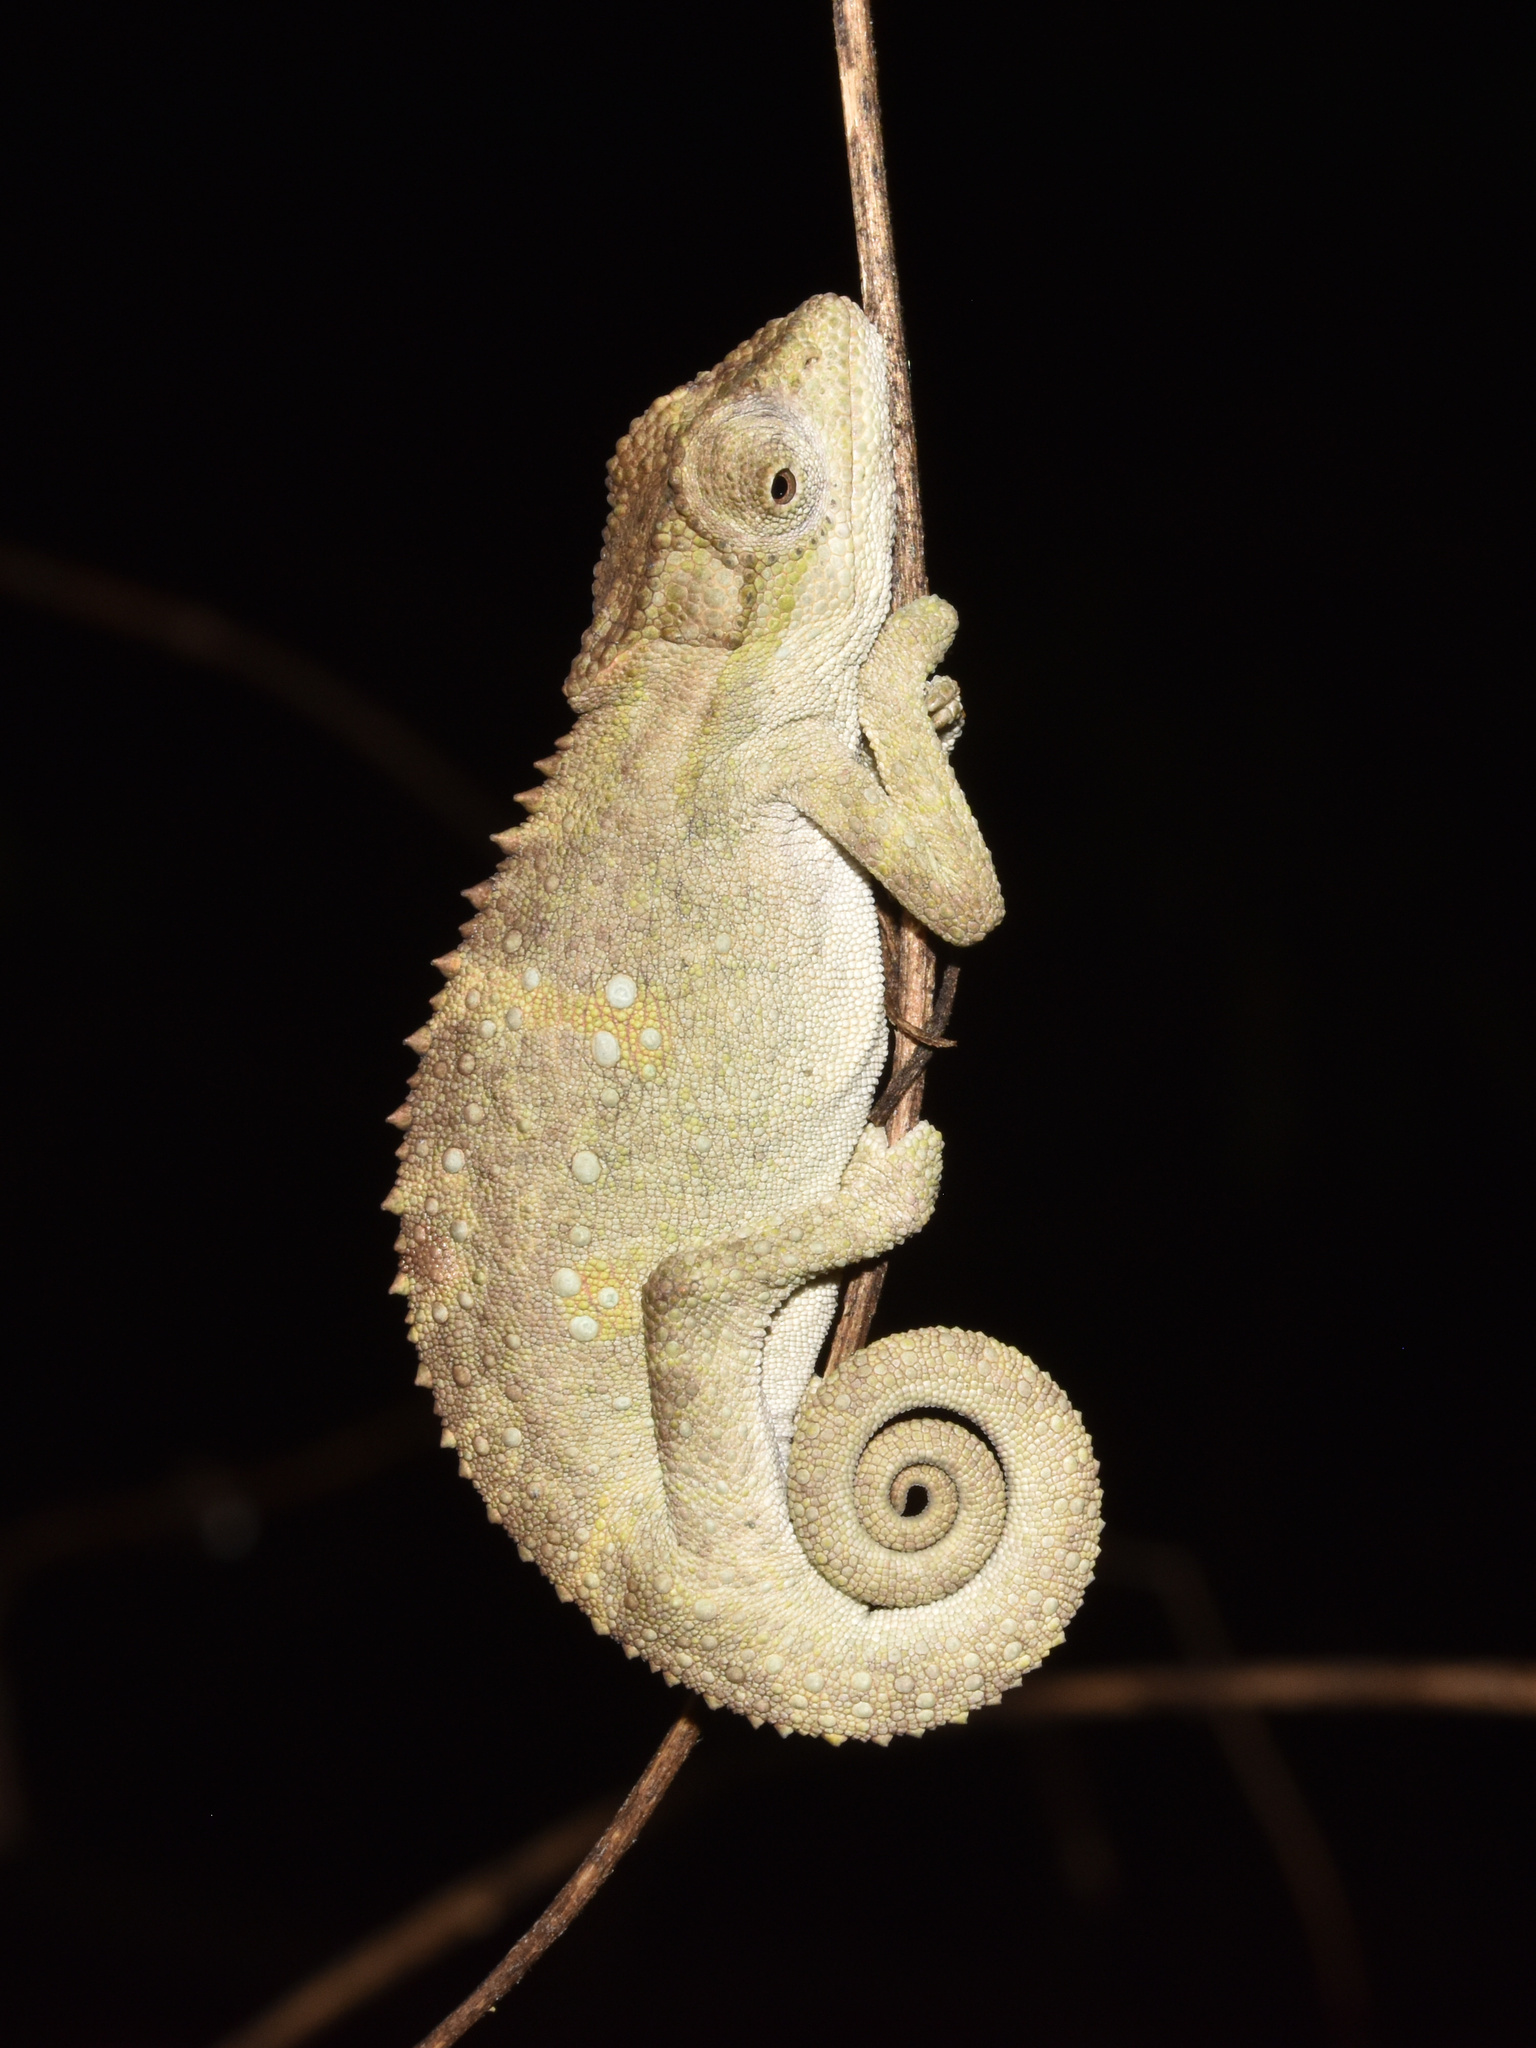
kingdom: Animalia
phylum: Chordata
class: Squamata
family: Chamaeleonidae
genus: Bradypodion
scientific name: Bradypodion melanocephalum
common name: Black-headed dwarf chameleon
